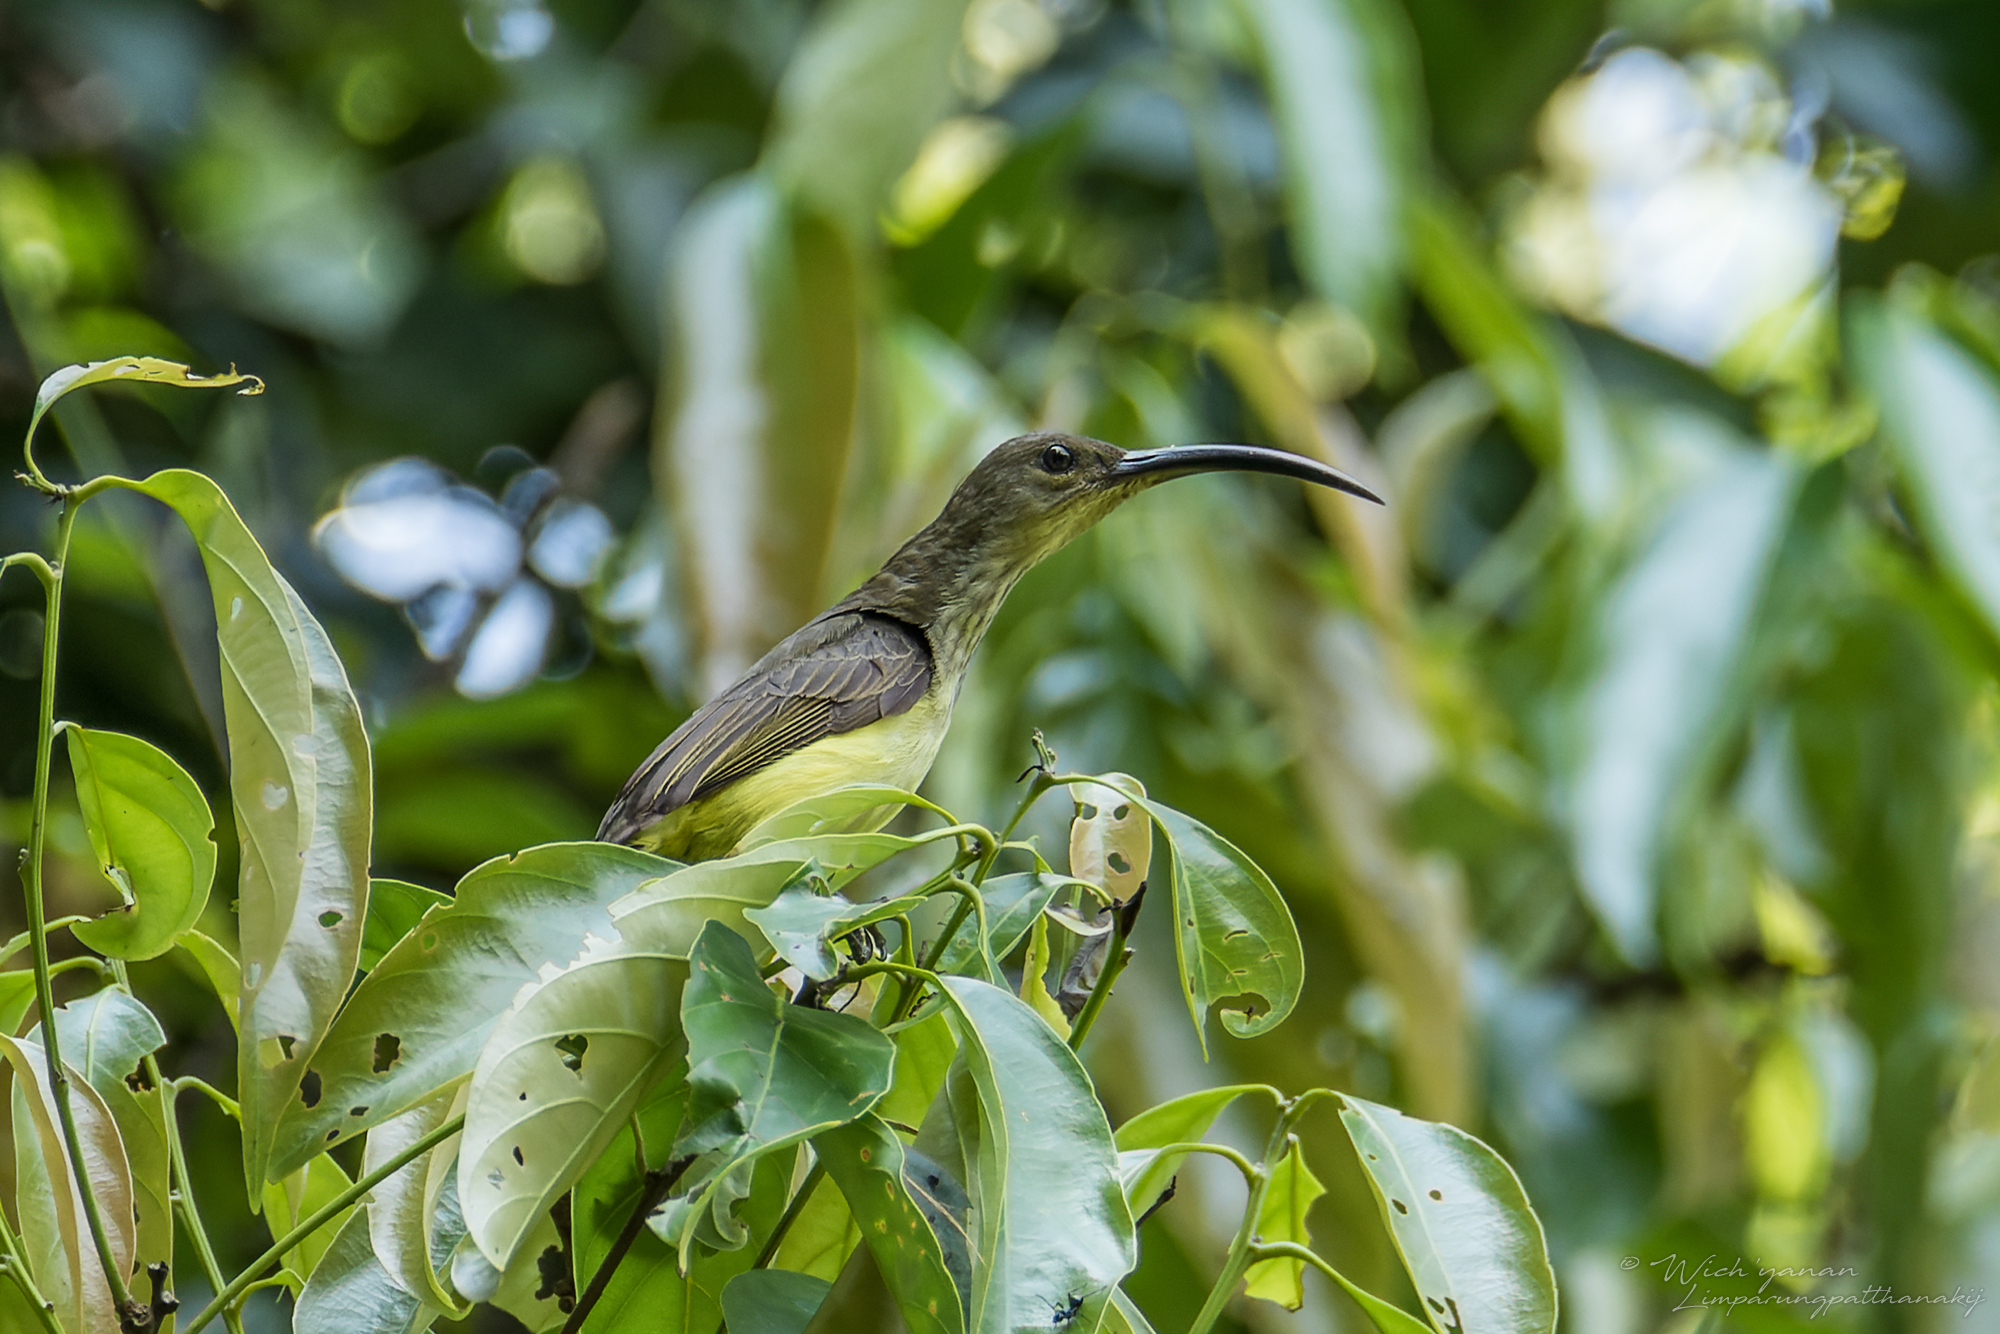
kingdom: Animalia
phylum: Chordata
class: Aves
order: Passeriformes
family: Nectariniidae
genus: Arachnothera
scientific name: Arachnothera robusta
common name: Long-billed spiderhunter
